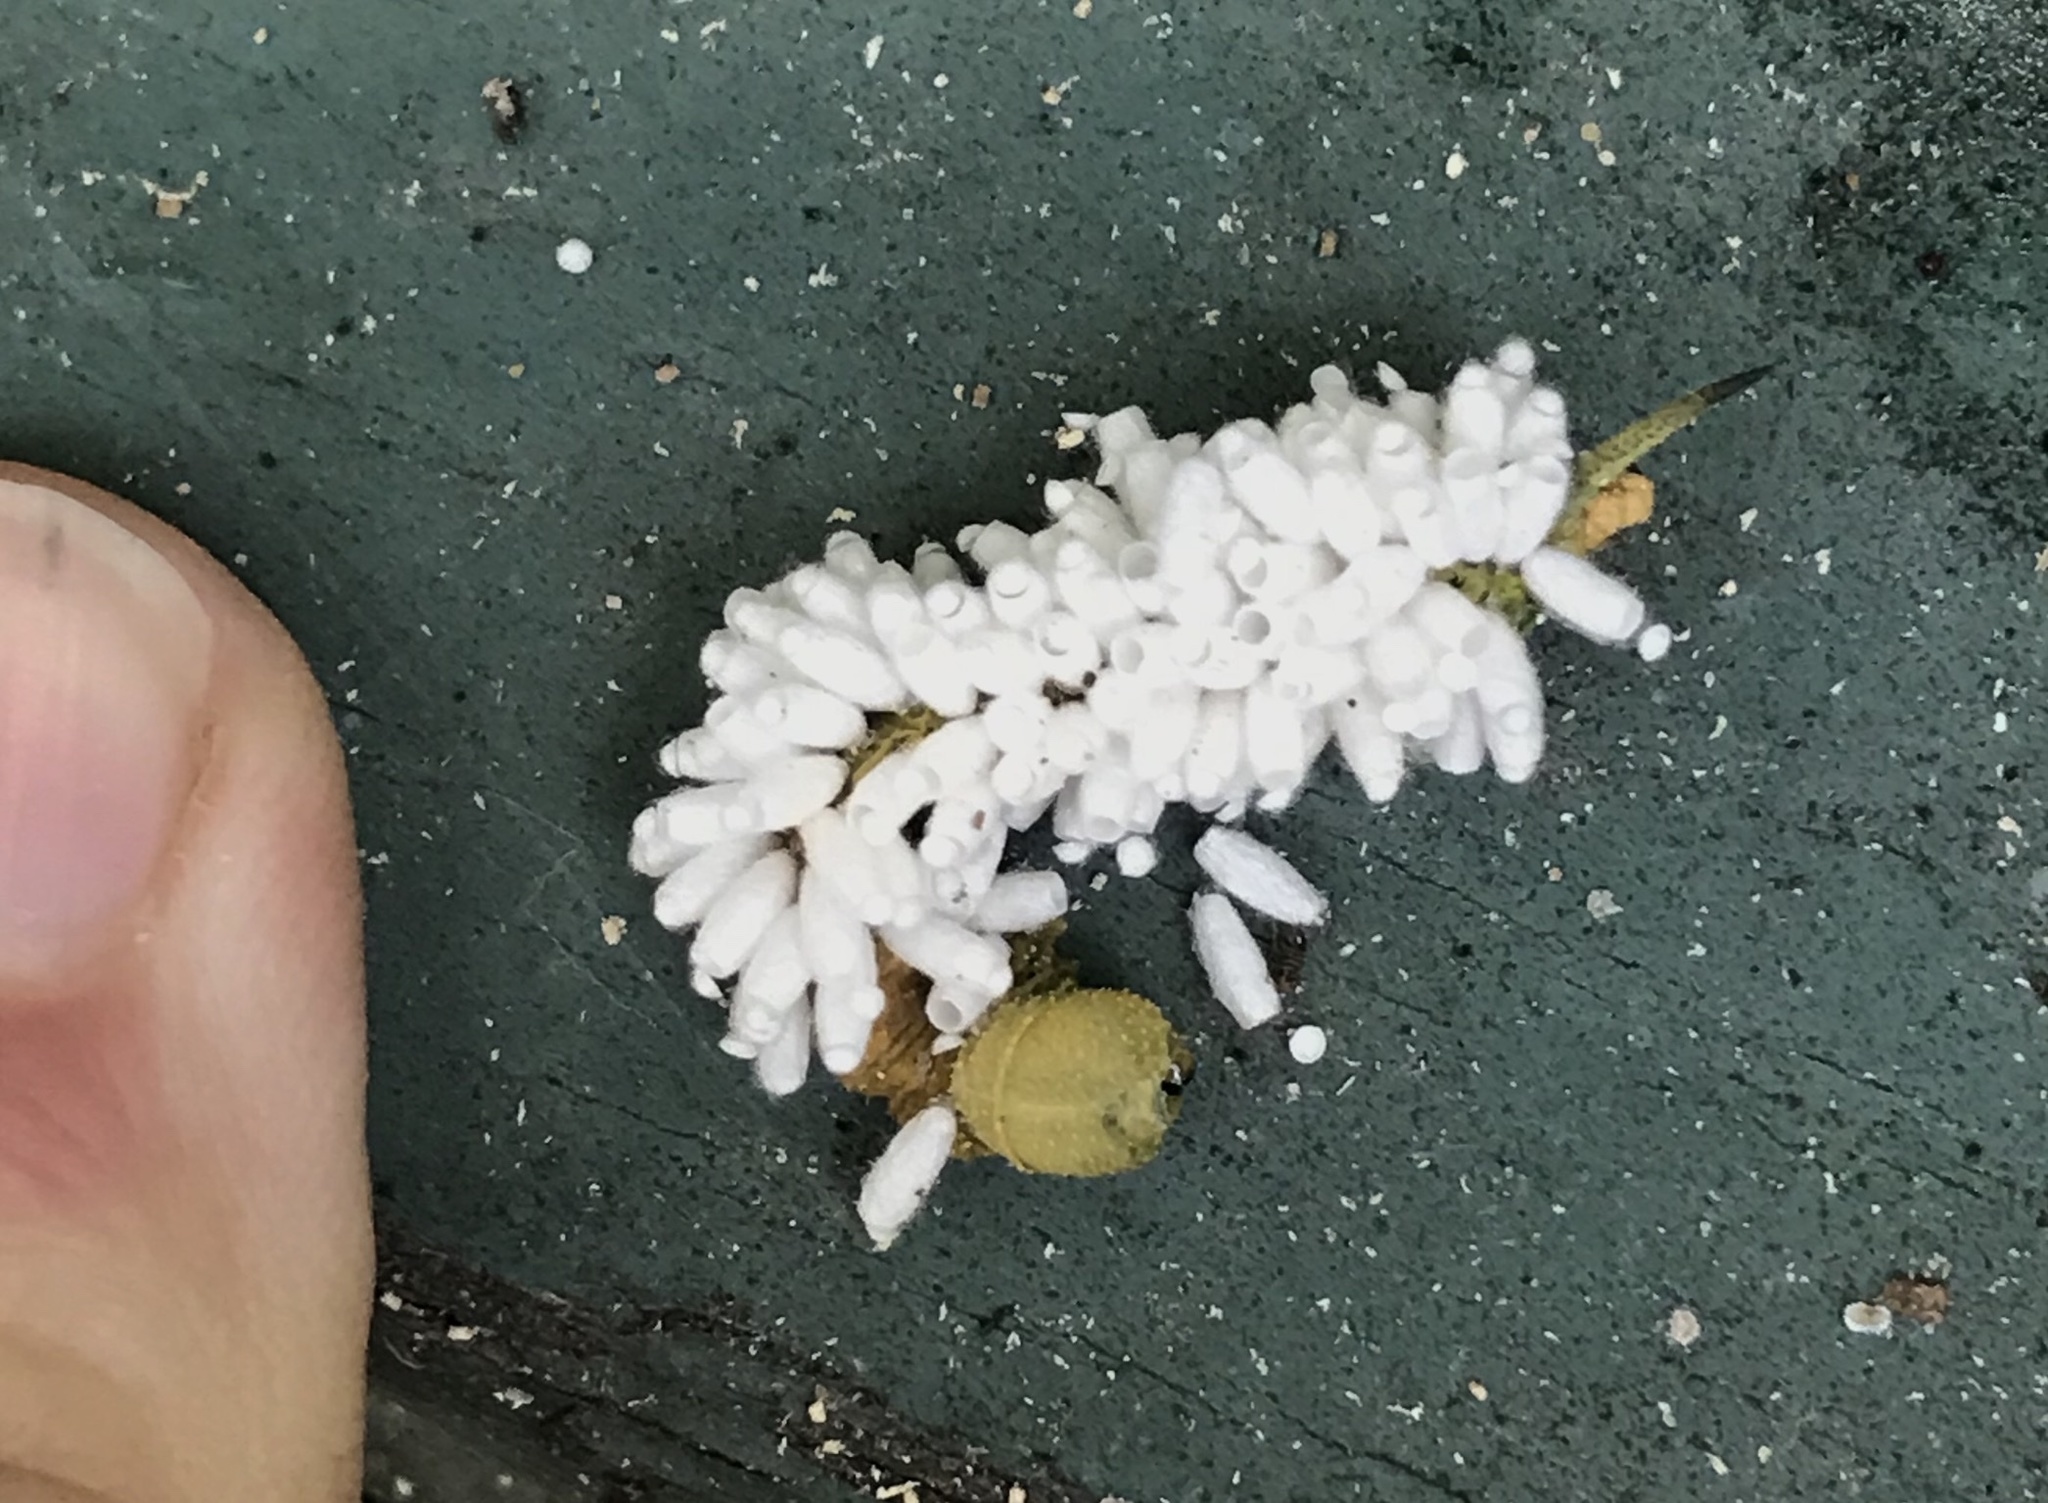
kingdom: Animalia
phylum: Arthropoda
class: Insecta
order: Hymenoptera
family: Braconidae
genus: Cotesia
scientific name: Cotesia congregata
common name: Hornworm parasitoid wasp
